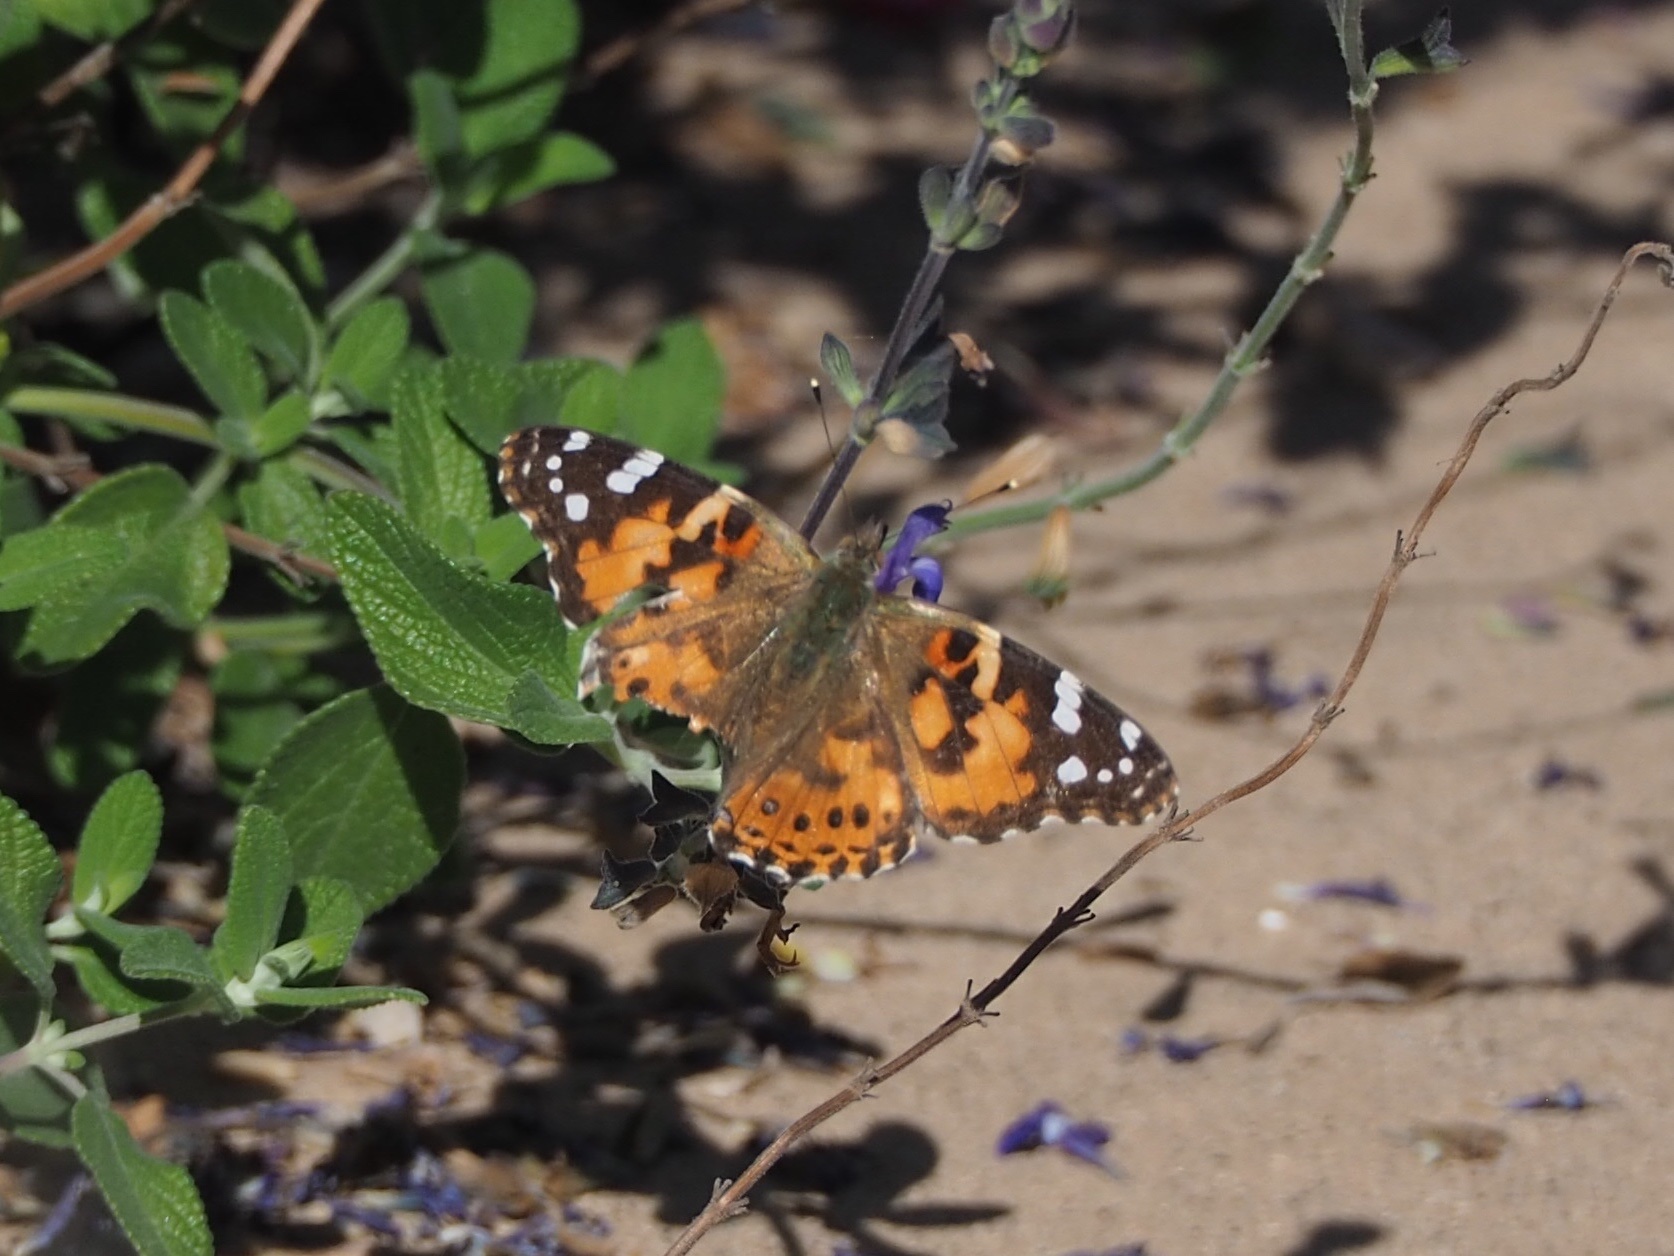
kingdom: Animalia
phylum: Arthropoda
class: Insecta
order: Lepidoptera
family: Nymphalidae
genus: Vanessa
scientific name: Vanessa cardui
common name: Painted lady
